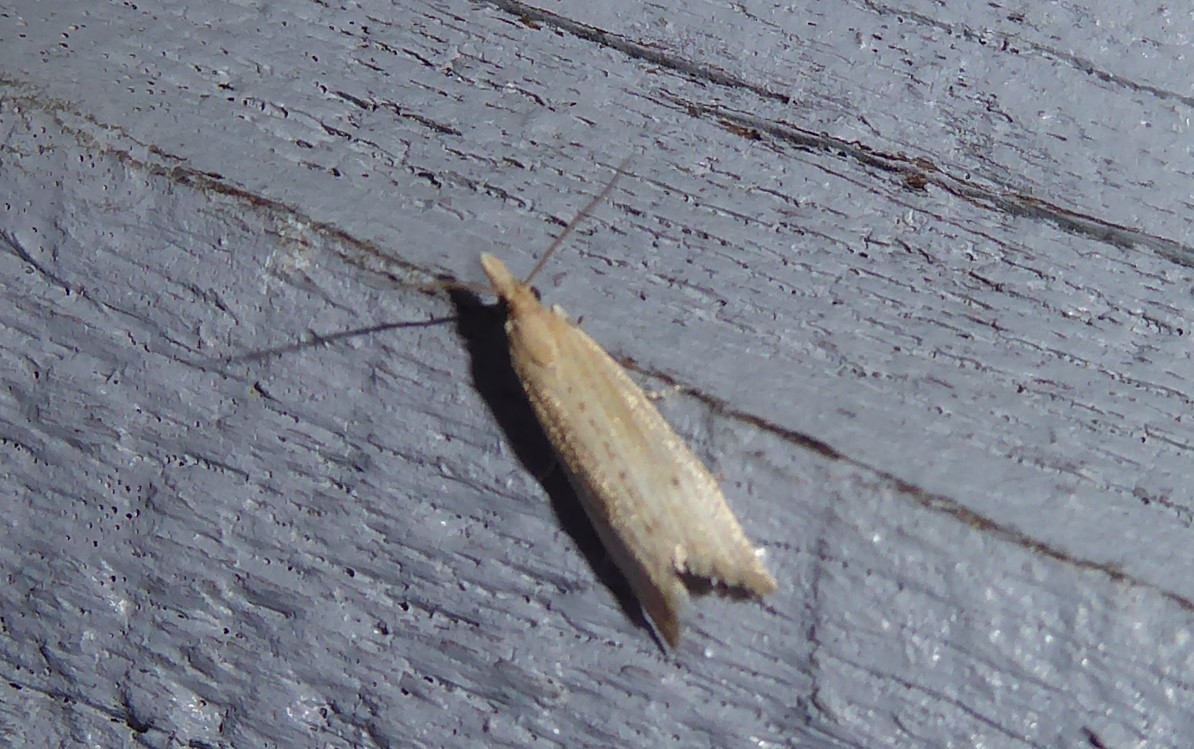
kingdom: Animalia
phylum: Arthropoda
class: Insecta
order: Lepidoptera
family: Tortricidae
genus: Bactra
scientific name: Bactra noteraula
